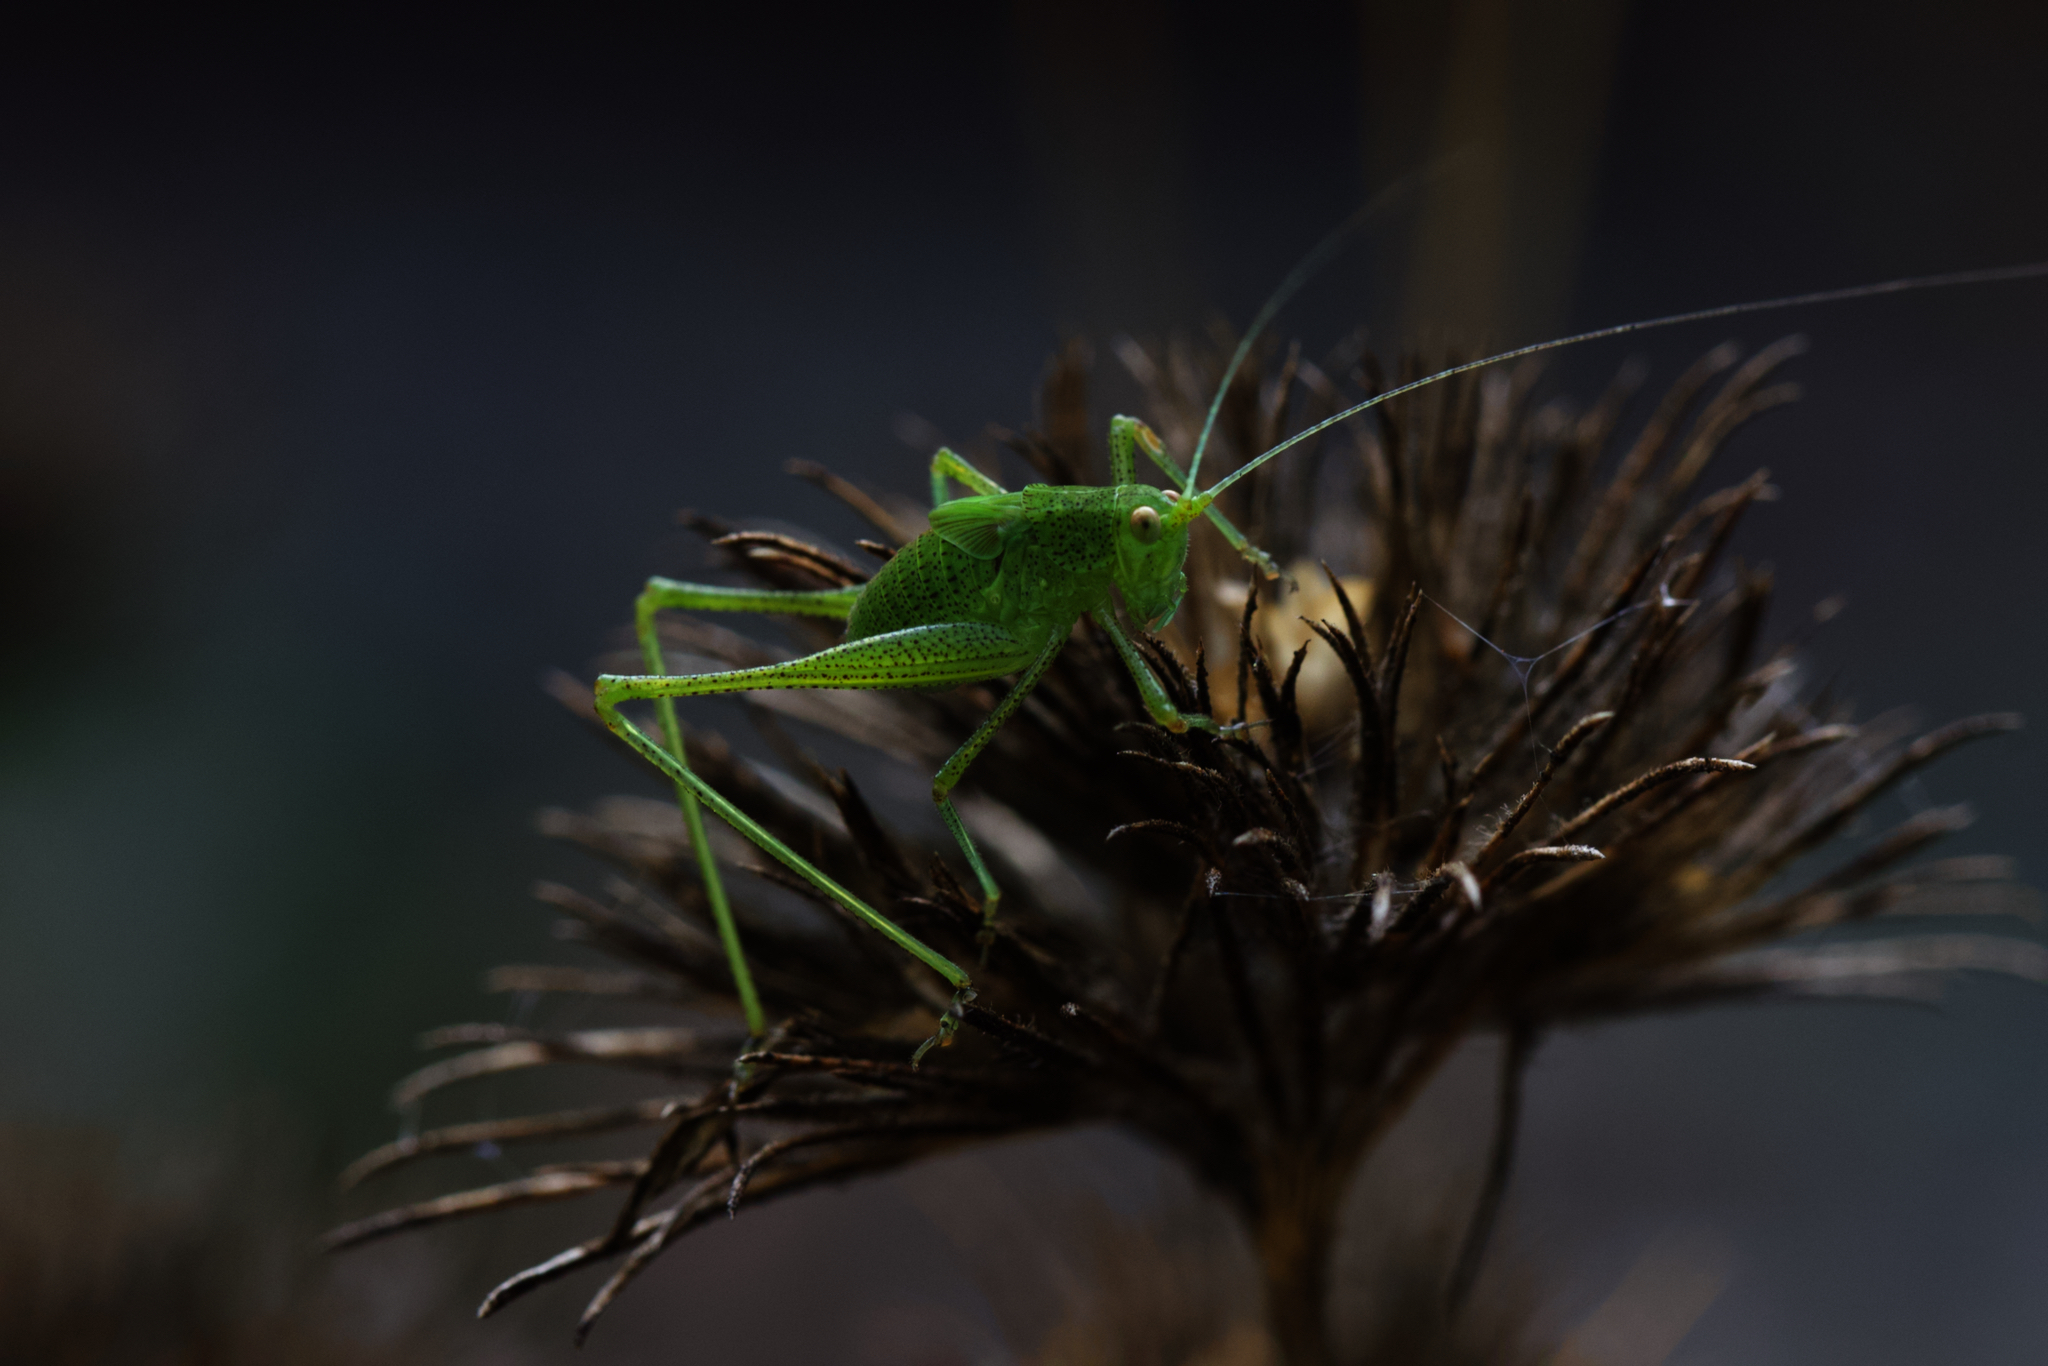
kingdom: Animalia
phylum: Arthropoda
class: Insecta
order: Orthoptera
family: Tettigoniidae
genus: Phaneroptera
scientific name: Phaneroptera nana
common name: Southern sickle bush-cricket
